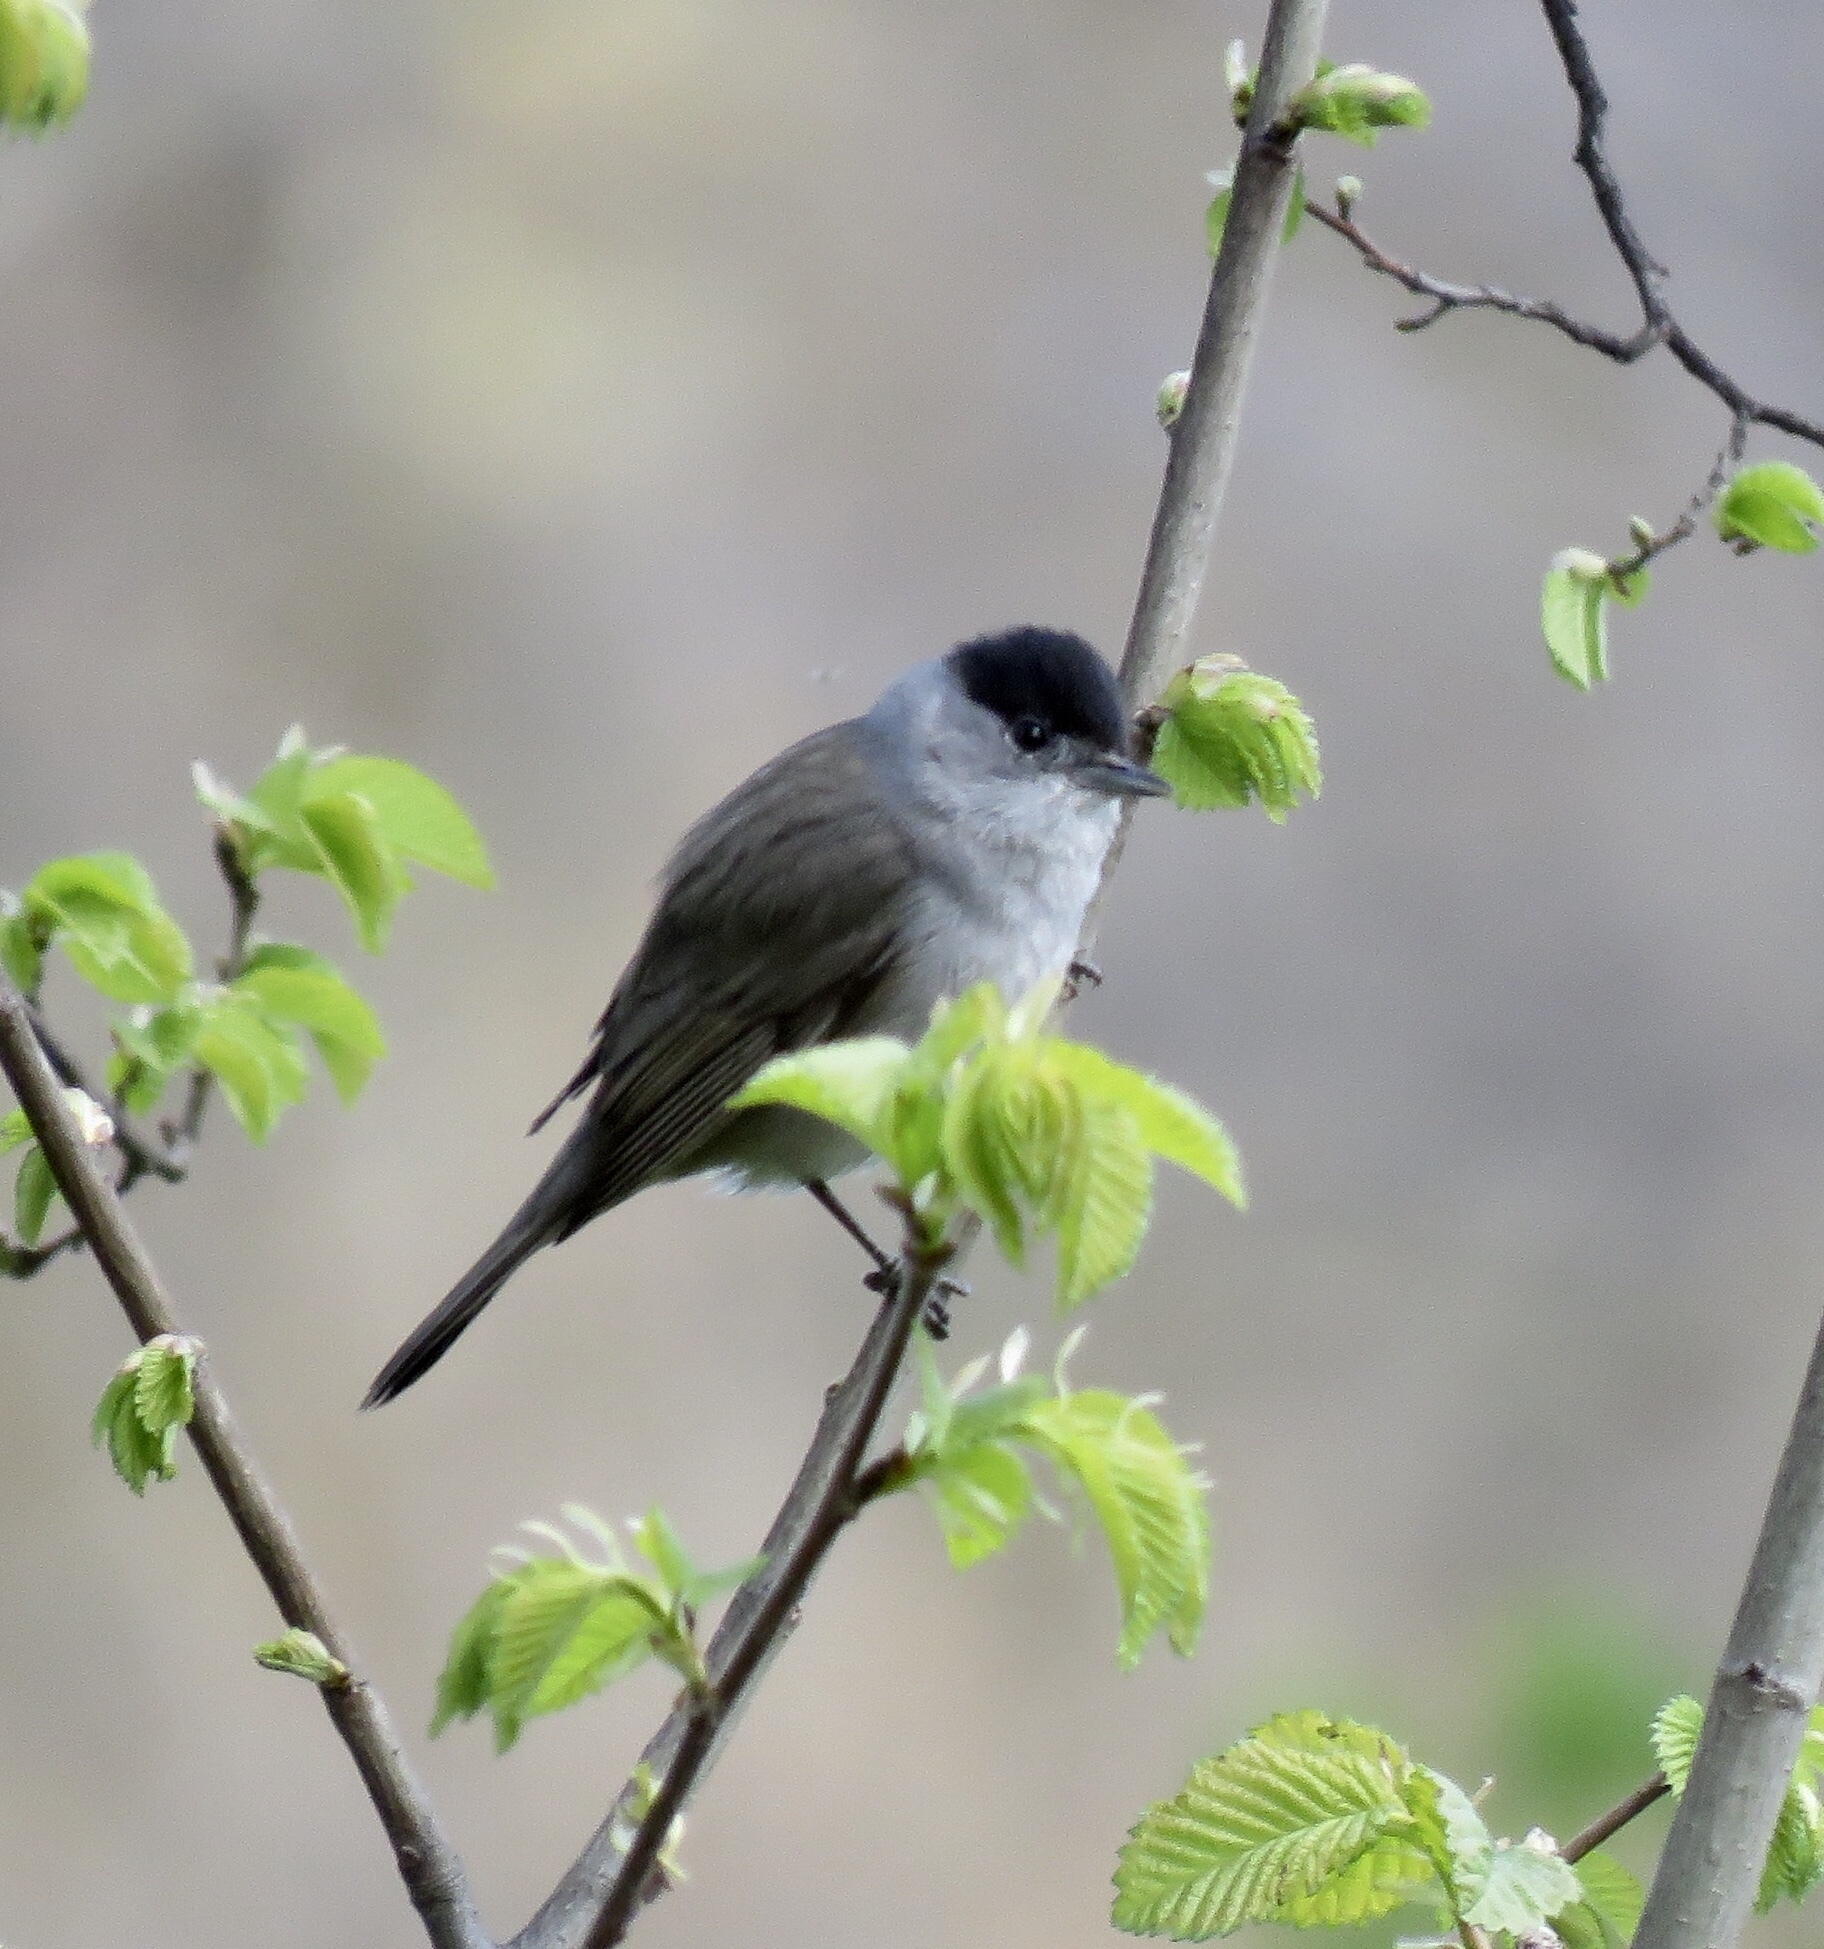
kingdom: Animalia
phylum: Chordata
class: Aves
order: Passeriformes
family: Sylviidae
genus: Sylvia
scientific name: Sylvia atricapilla
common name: Eurasian blackcap
